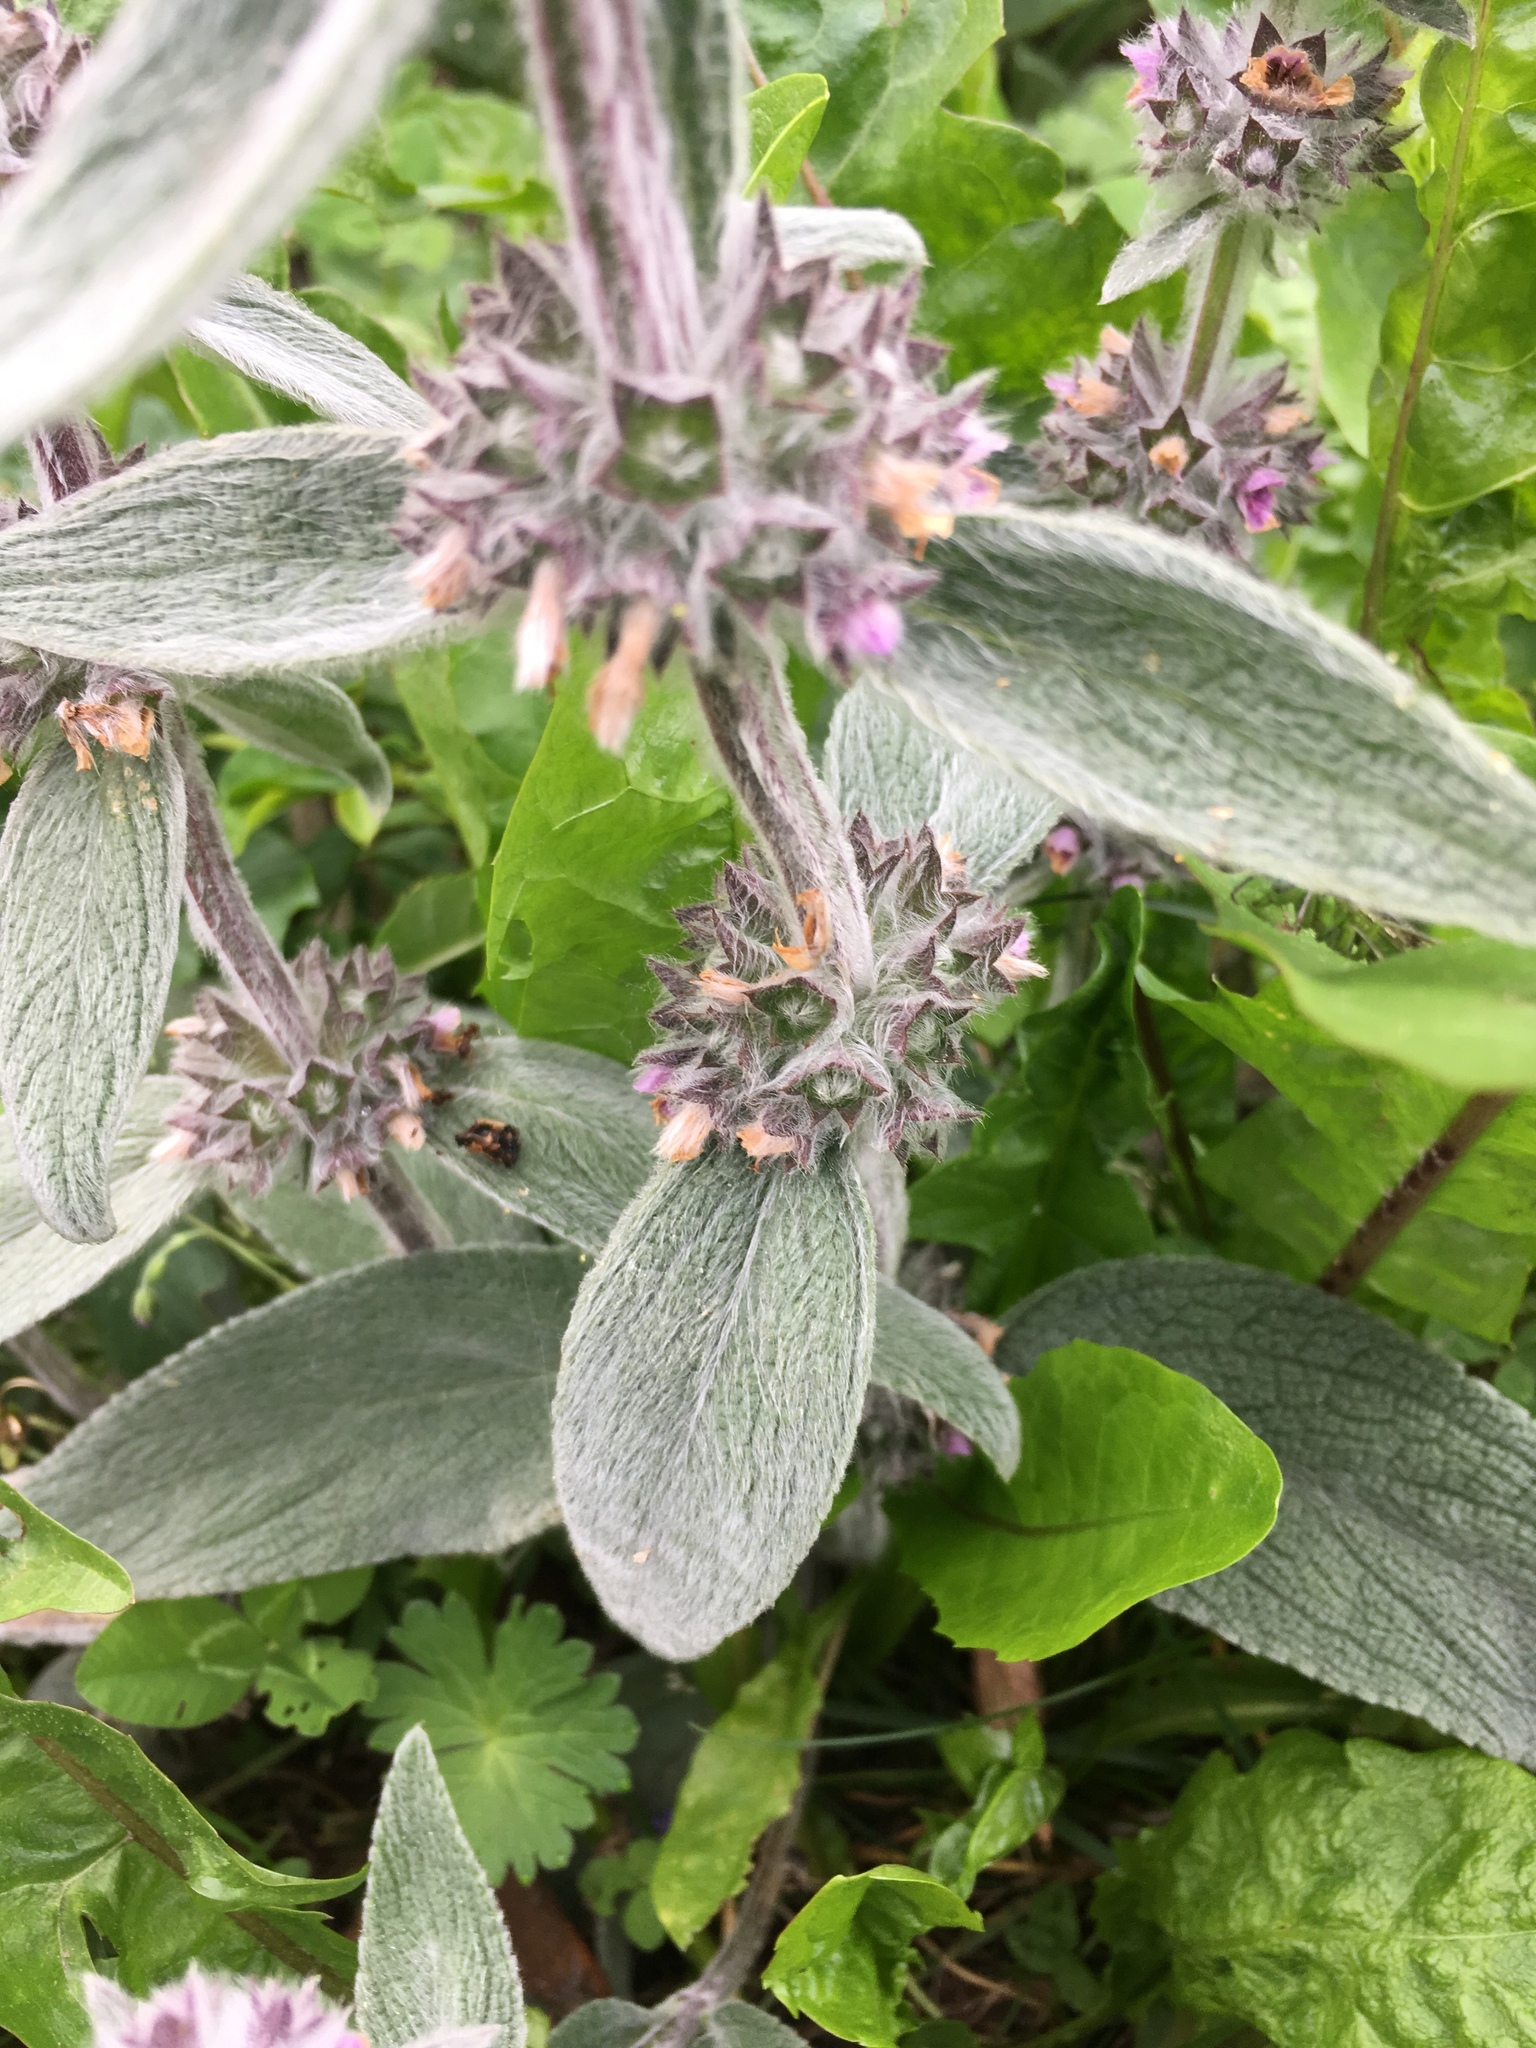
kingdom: Plantae
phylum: Tracheophyta
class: Magnoliopsida
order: Lamiales
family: Lamiaceae
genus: Stachys
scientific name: Stachys germanica
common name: Downy woundwort
